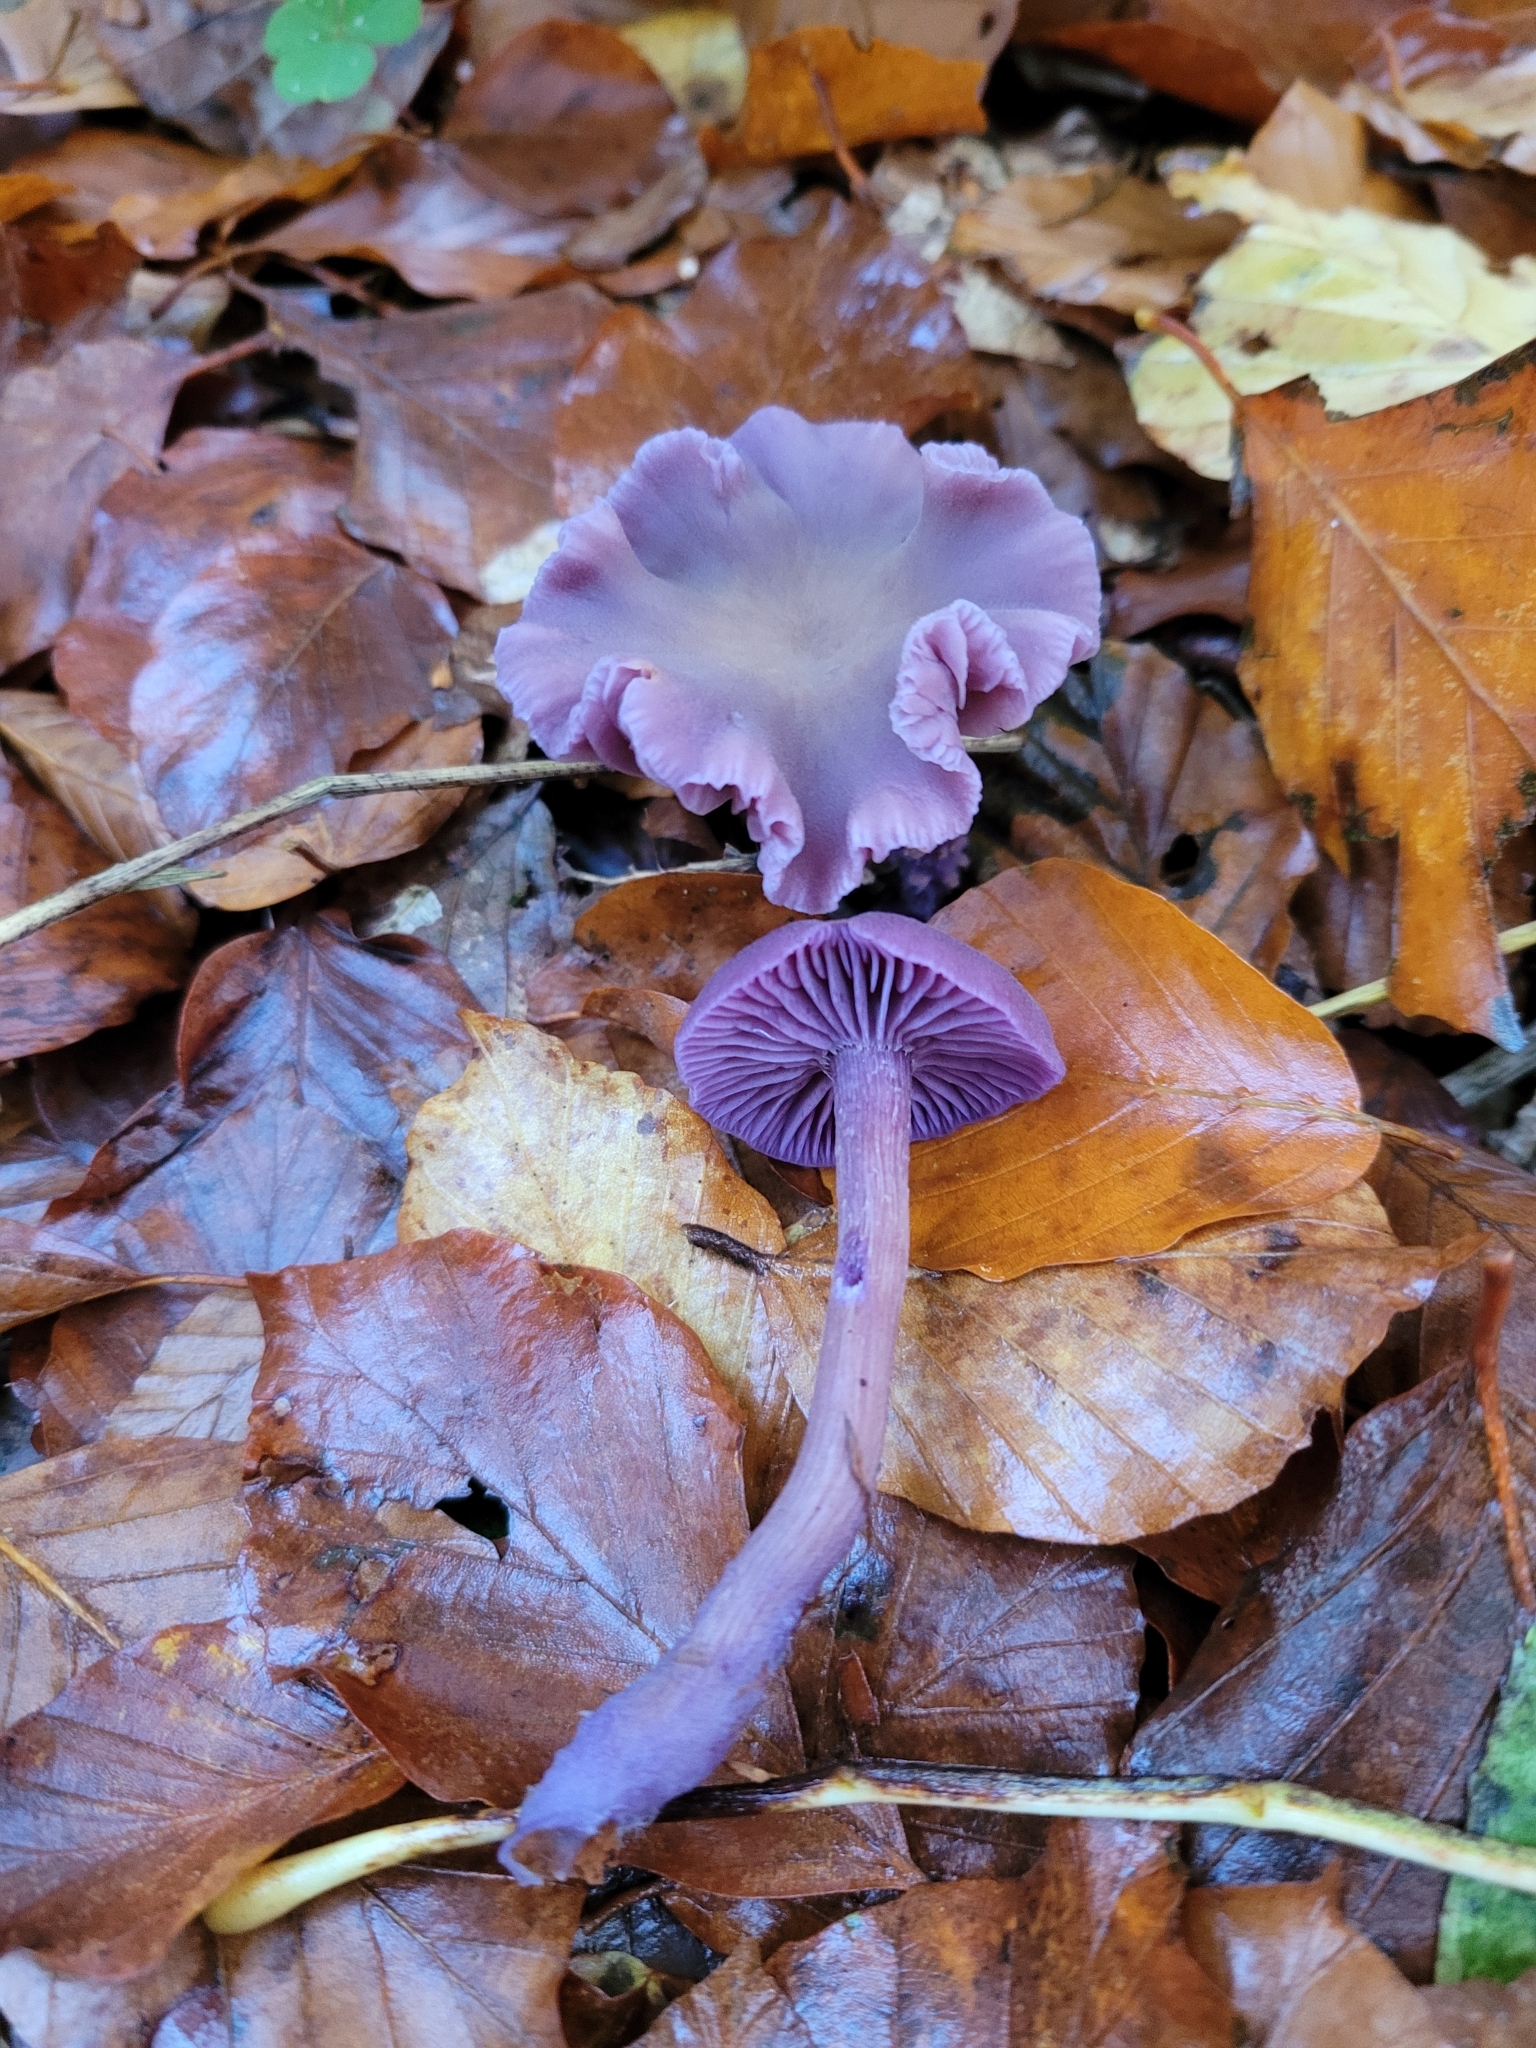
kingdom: Fungi
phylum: Basidiomycota
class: Agaricomycetes
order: Agaricales
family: Hydnangiaceae
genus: Laccaria
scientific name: Laccaria amethystina
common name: Amethyst deceiver
